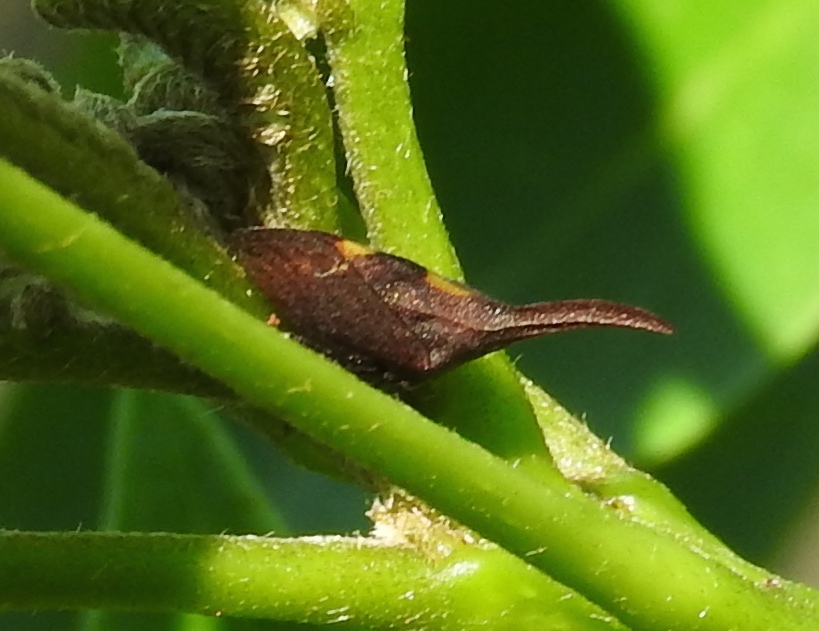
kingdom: Animalia
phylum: Arthropoda
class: Insecta
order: Hemiptera
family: Membracidae
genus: Enchenopa
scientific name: Enchenopa
